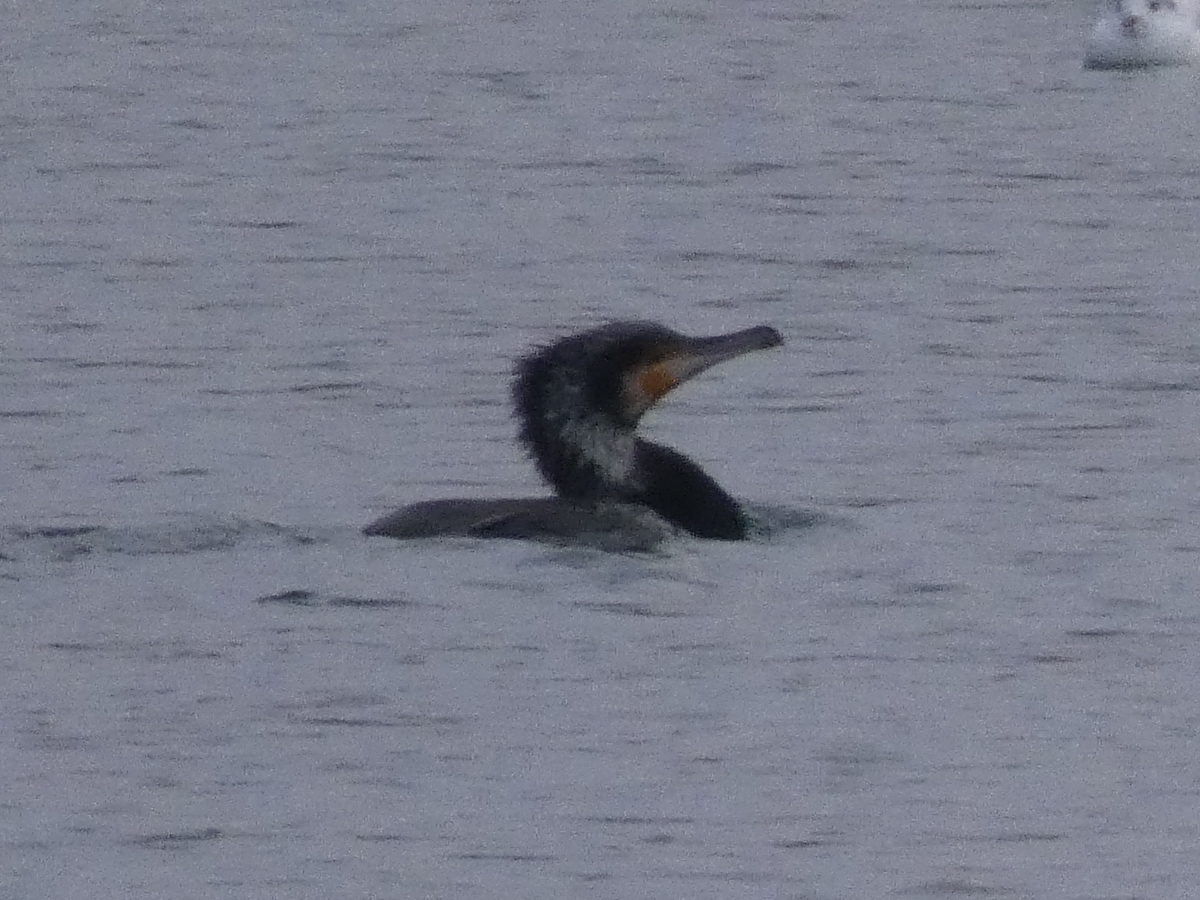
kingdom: Animalia
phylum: Chordata
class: Aves
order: Suliformes
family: Phalacrocoracidae
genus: Phalacrocorax
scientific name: Phalacrocorax carbo
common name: Great cormorant
